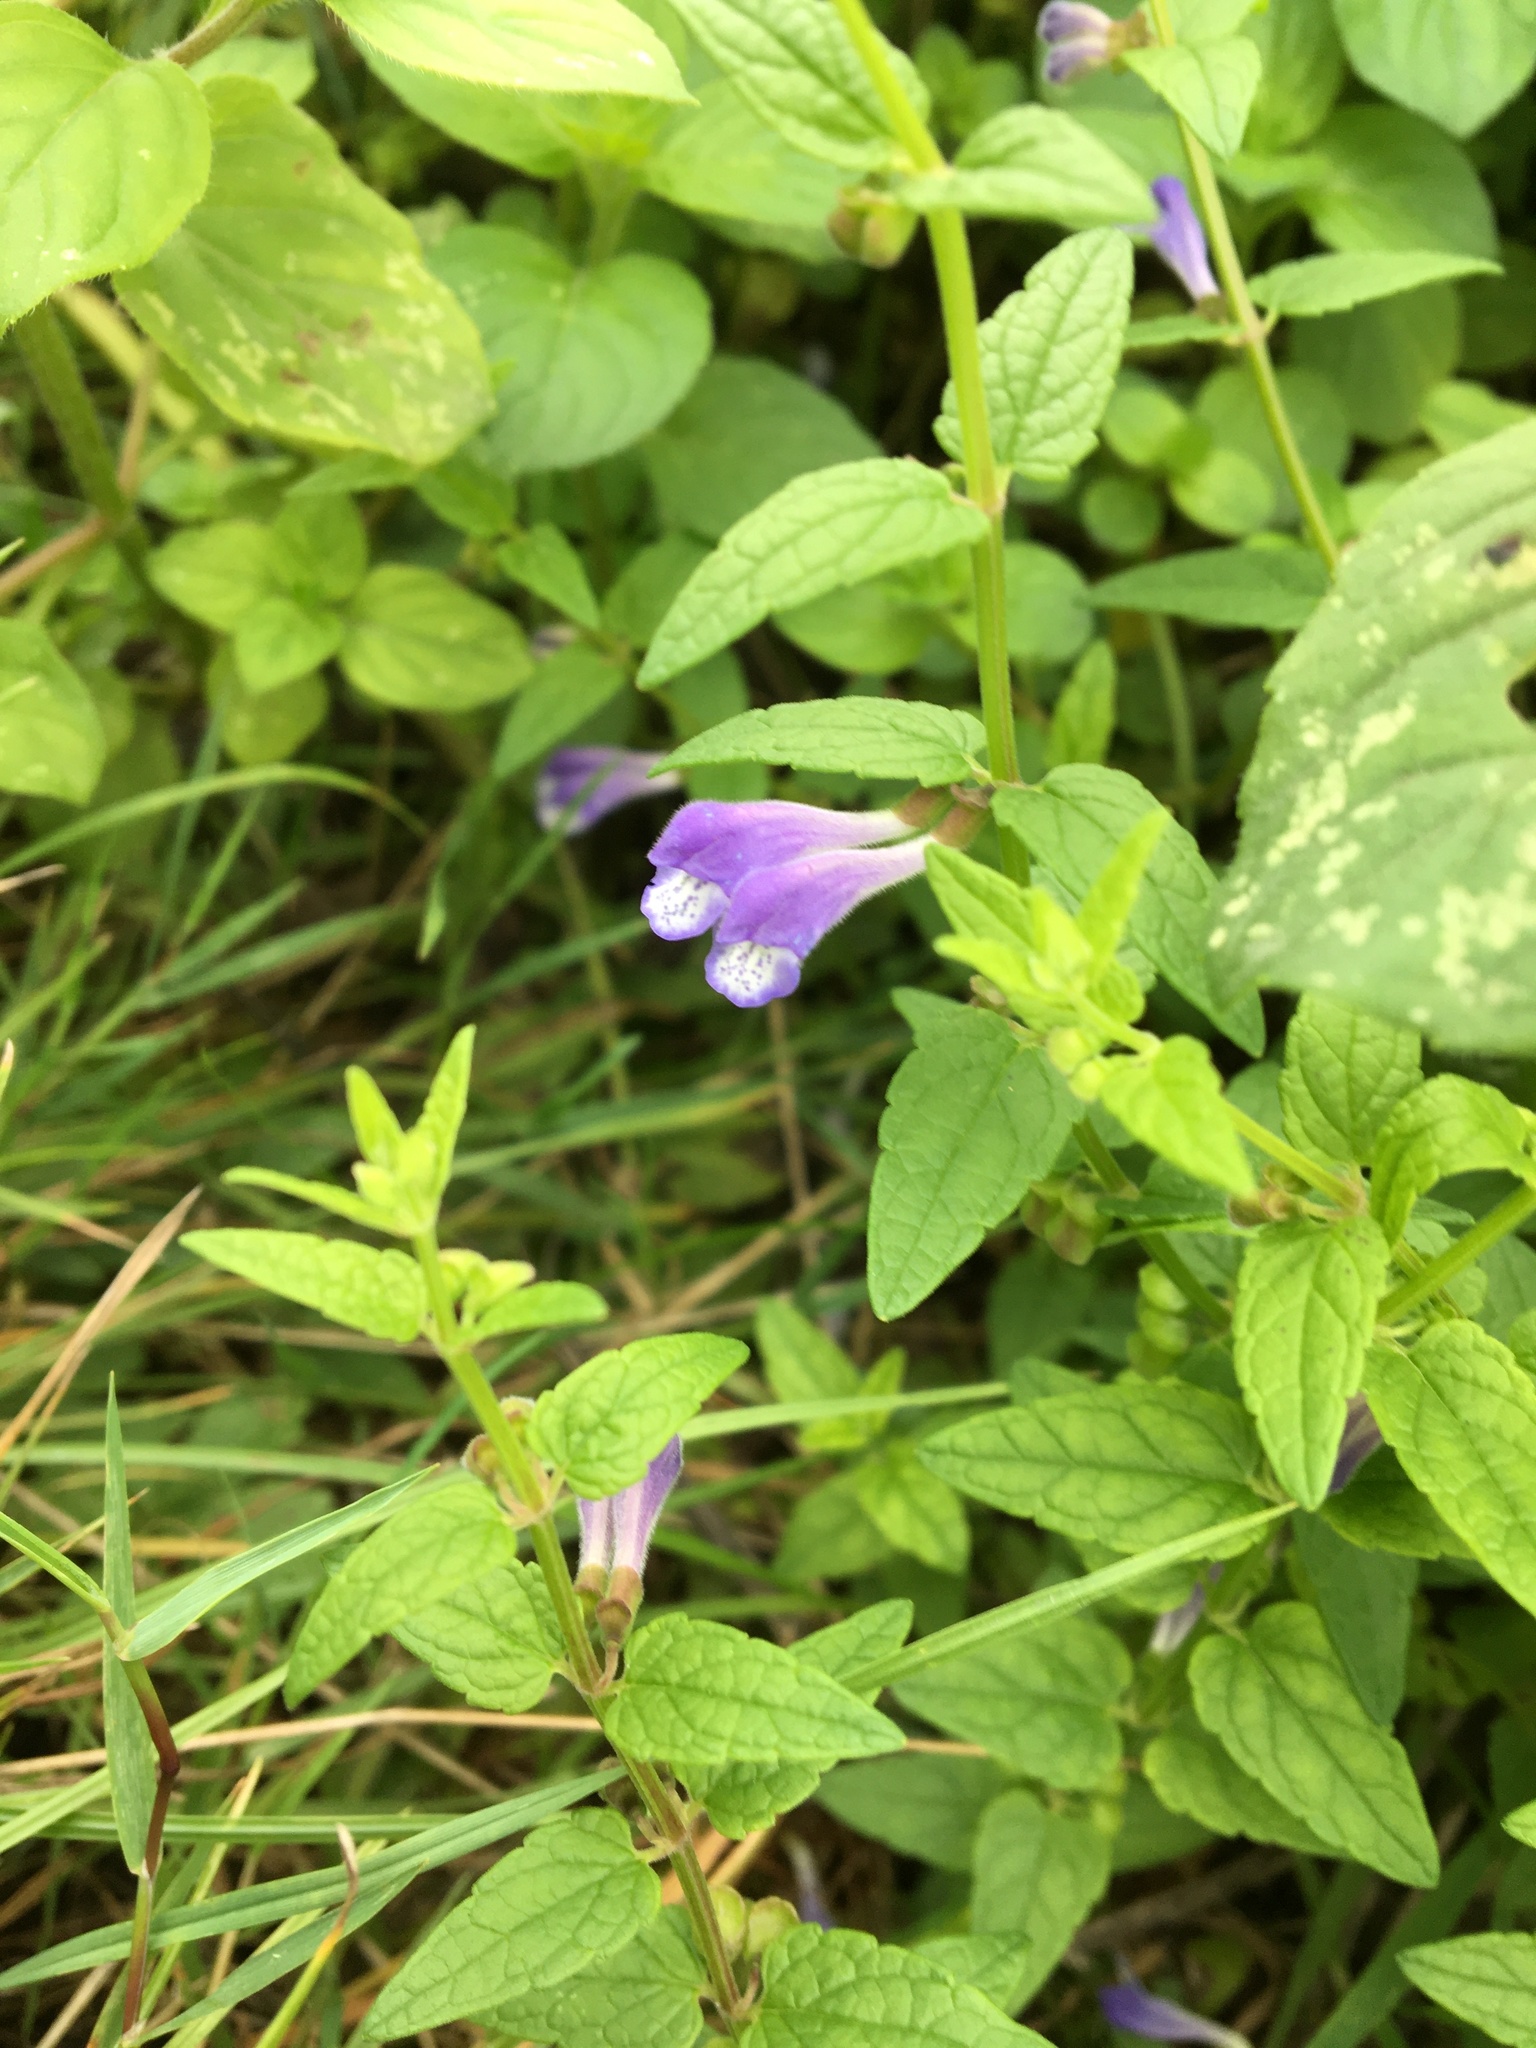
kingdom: Plantae
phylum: Tracheophyta
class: Magnoliopsida
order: Lamiales
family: Lamiaceae
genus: Scutellaria
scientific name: Scutellaria galericulata
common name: Skullcap
